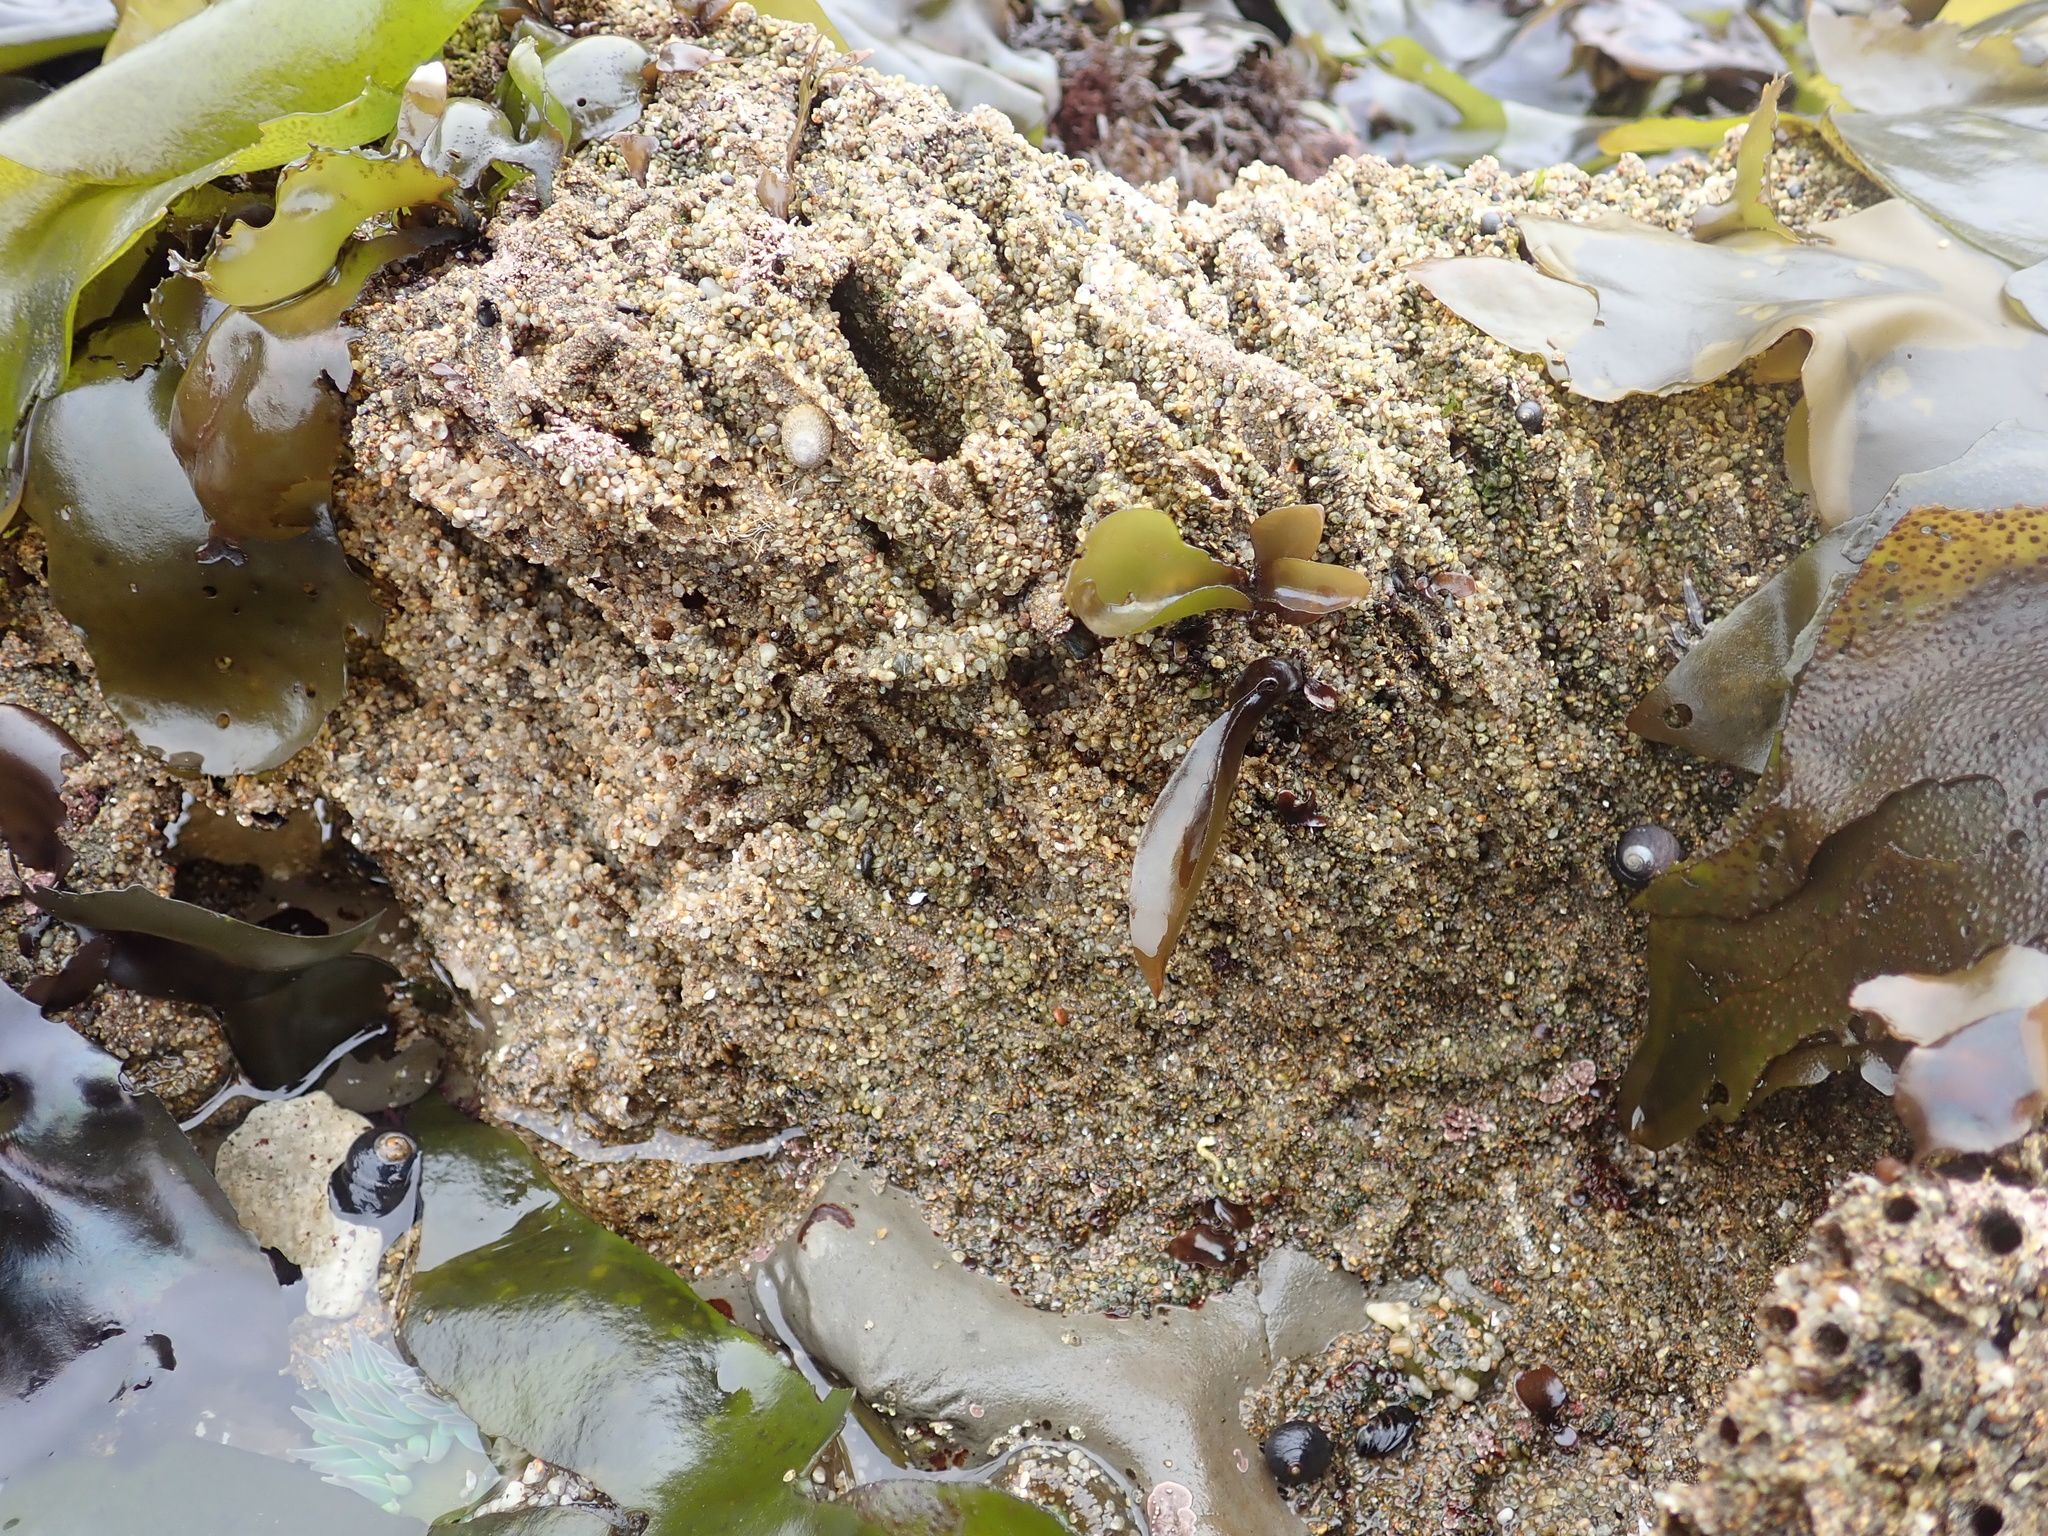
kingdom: Animalia
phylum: Annelida
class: Polychaeta
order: Sabellida
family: Sabellariidae
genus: Phragmatopoma
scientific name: Phragmatopoma californica
